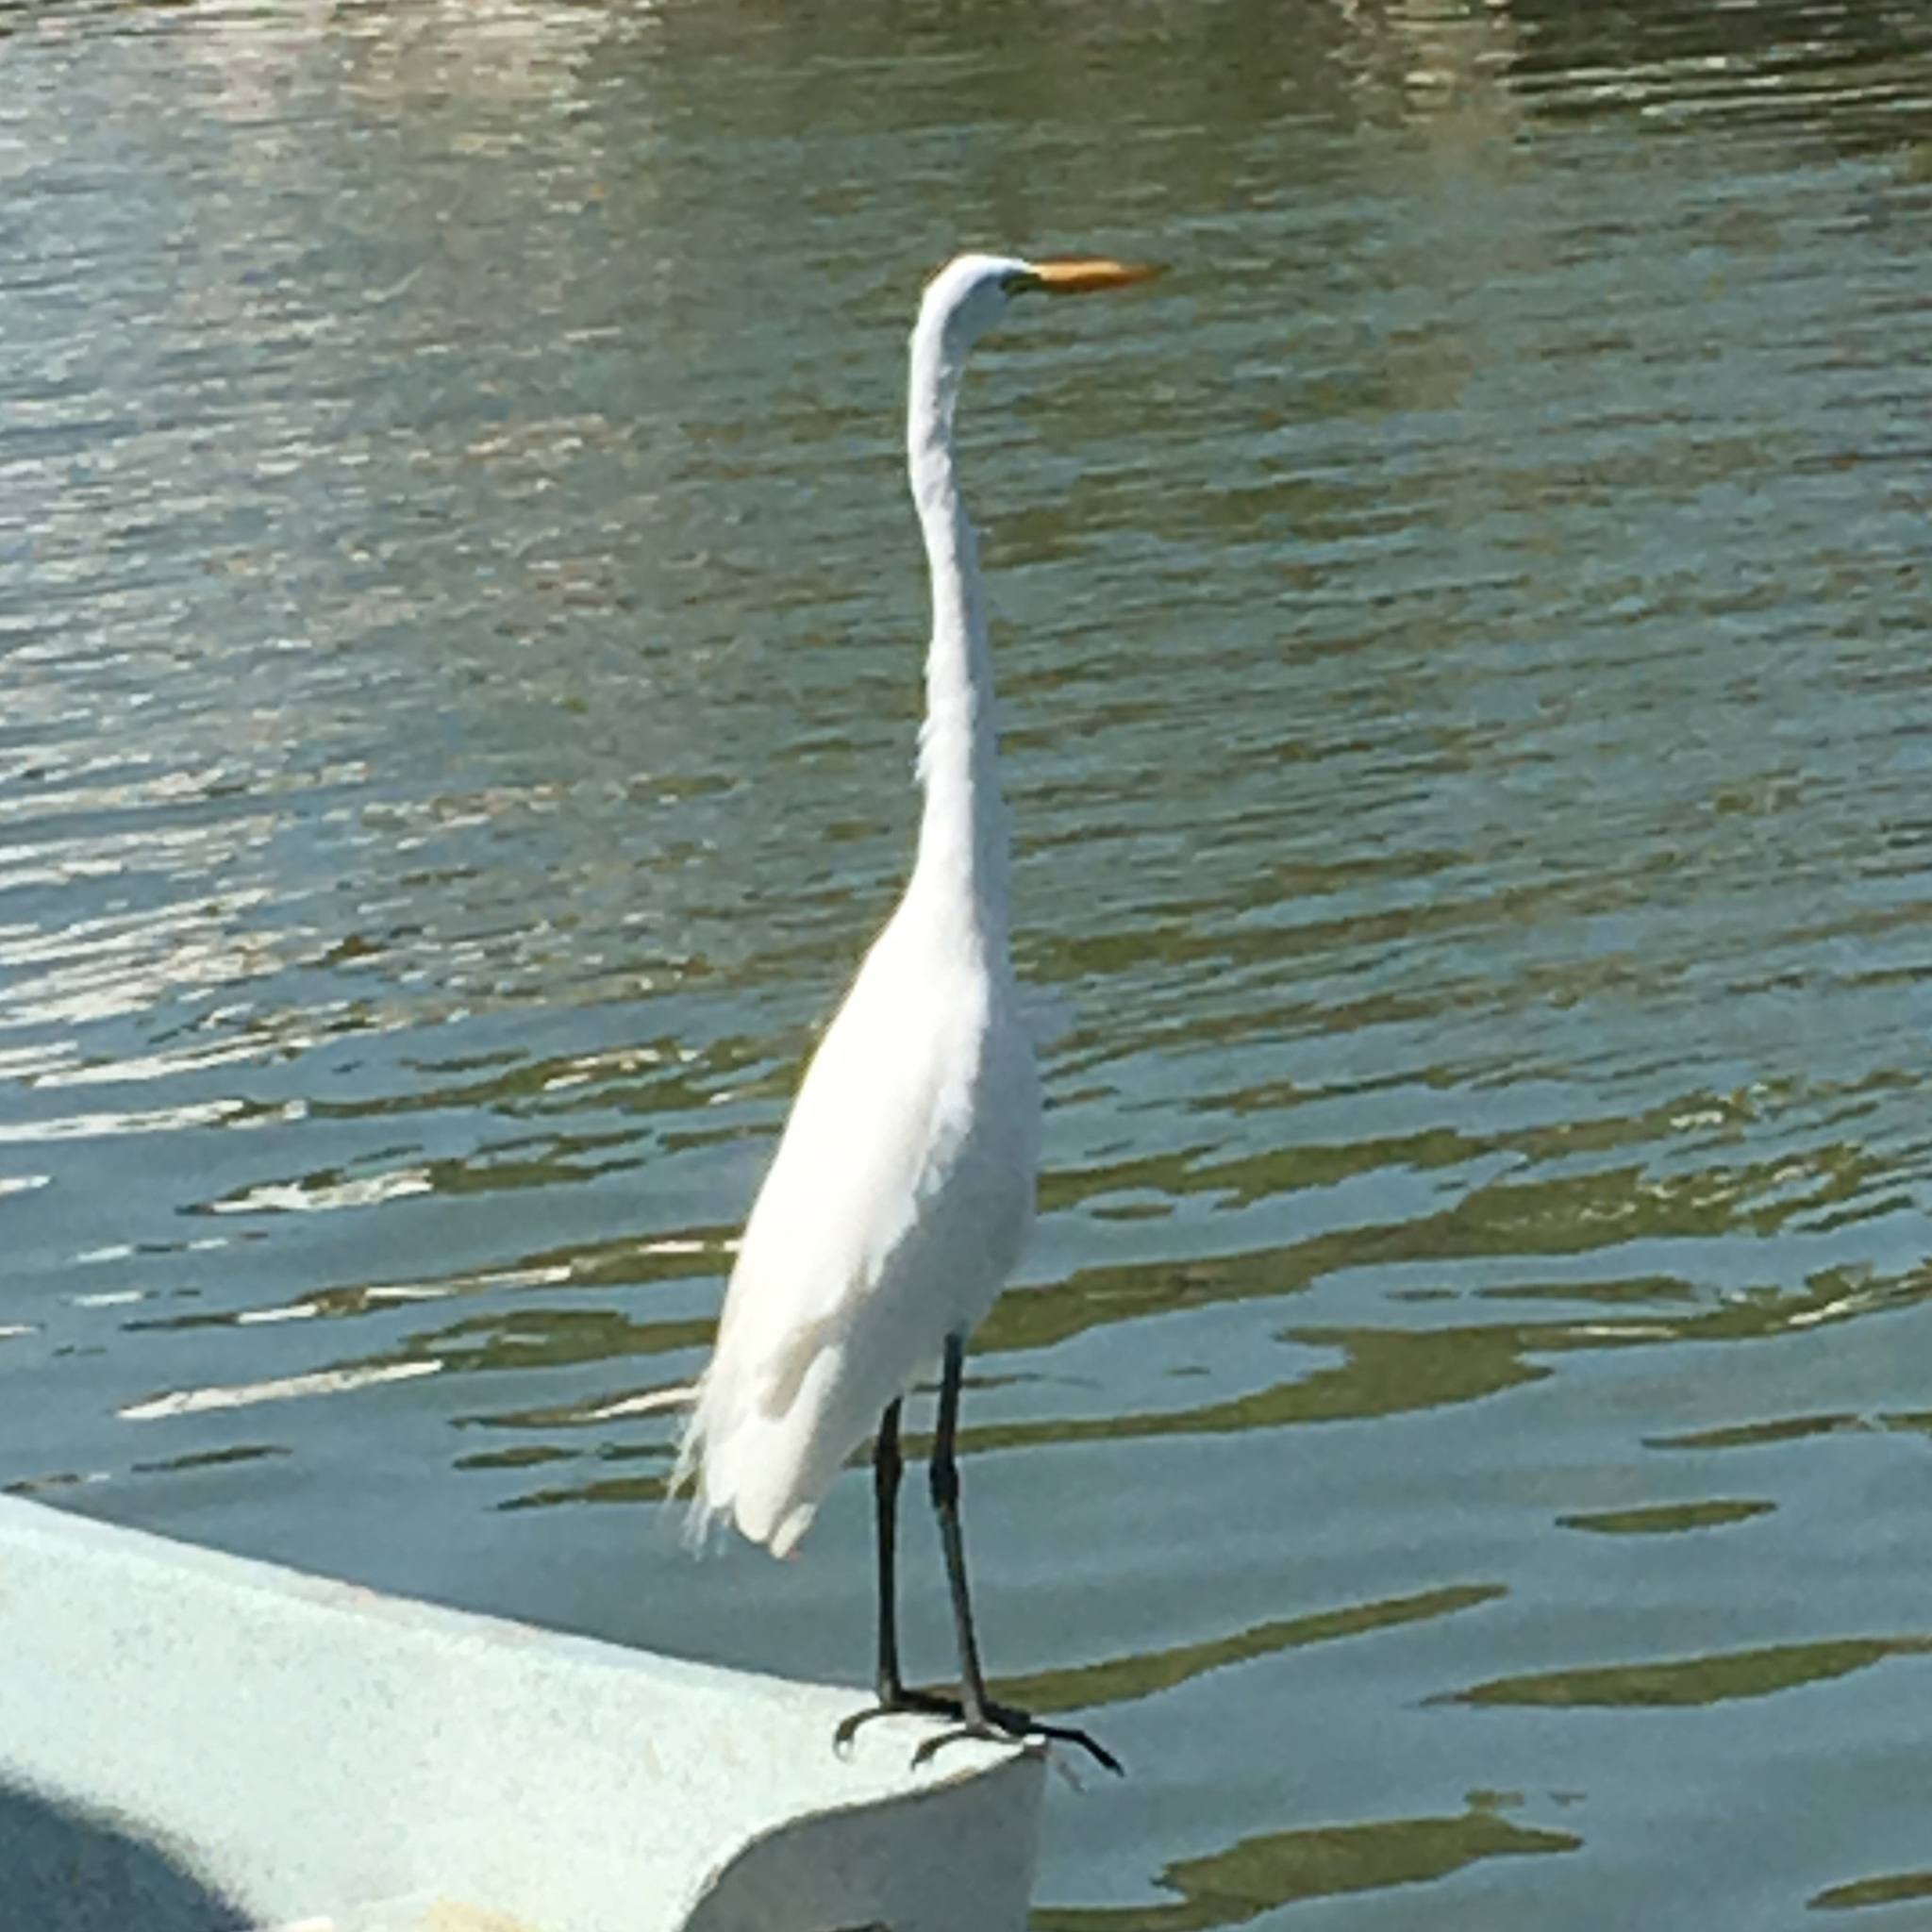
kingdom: Animalia
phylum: Chordata
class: Aves
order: Pelecaniformes
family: Ardeidae
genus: Ardea
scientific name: Ardea alba
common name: Great egret
